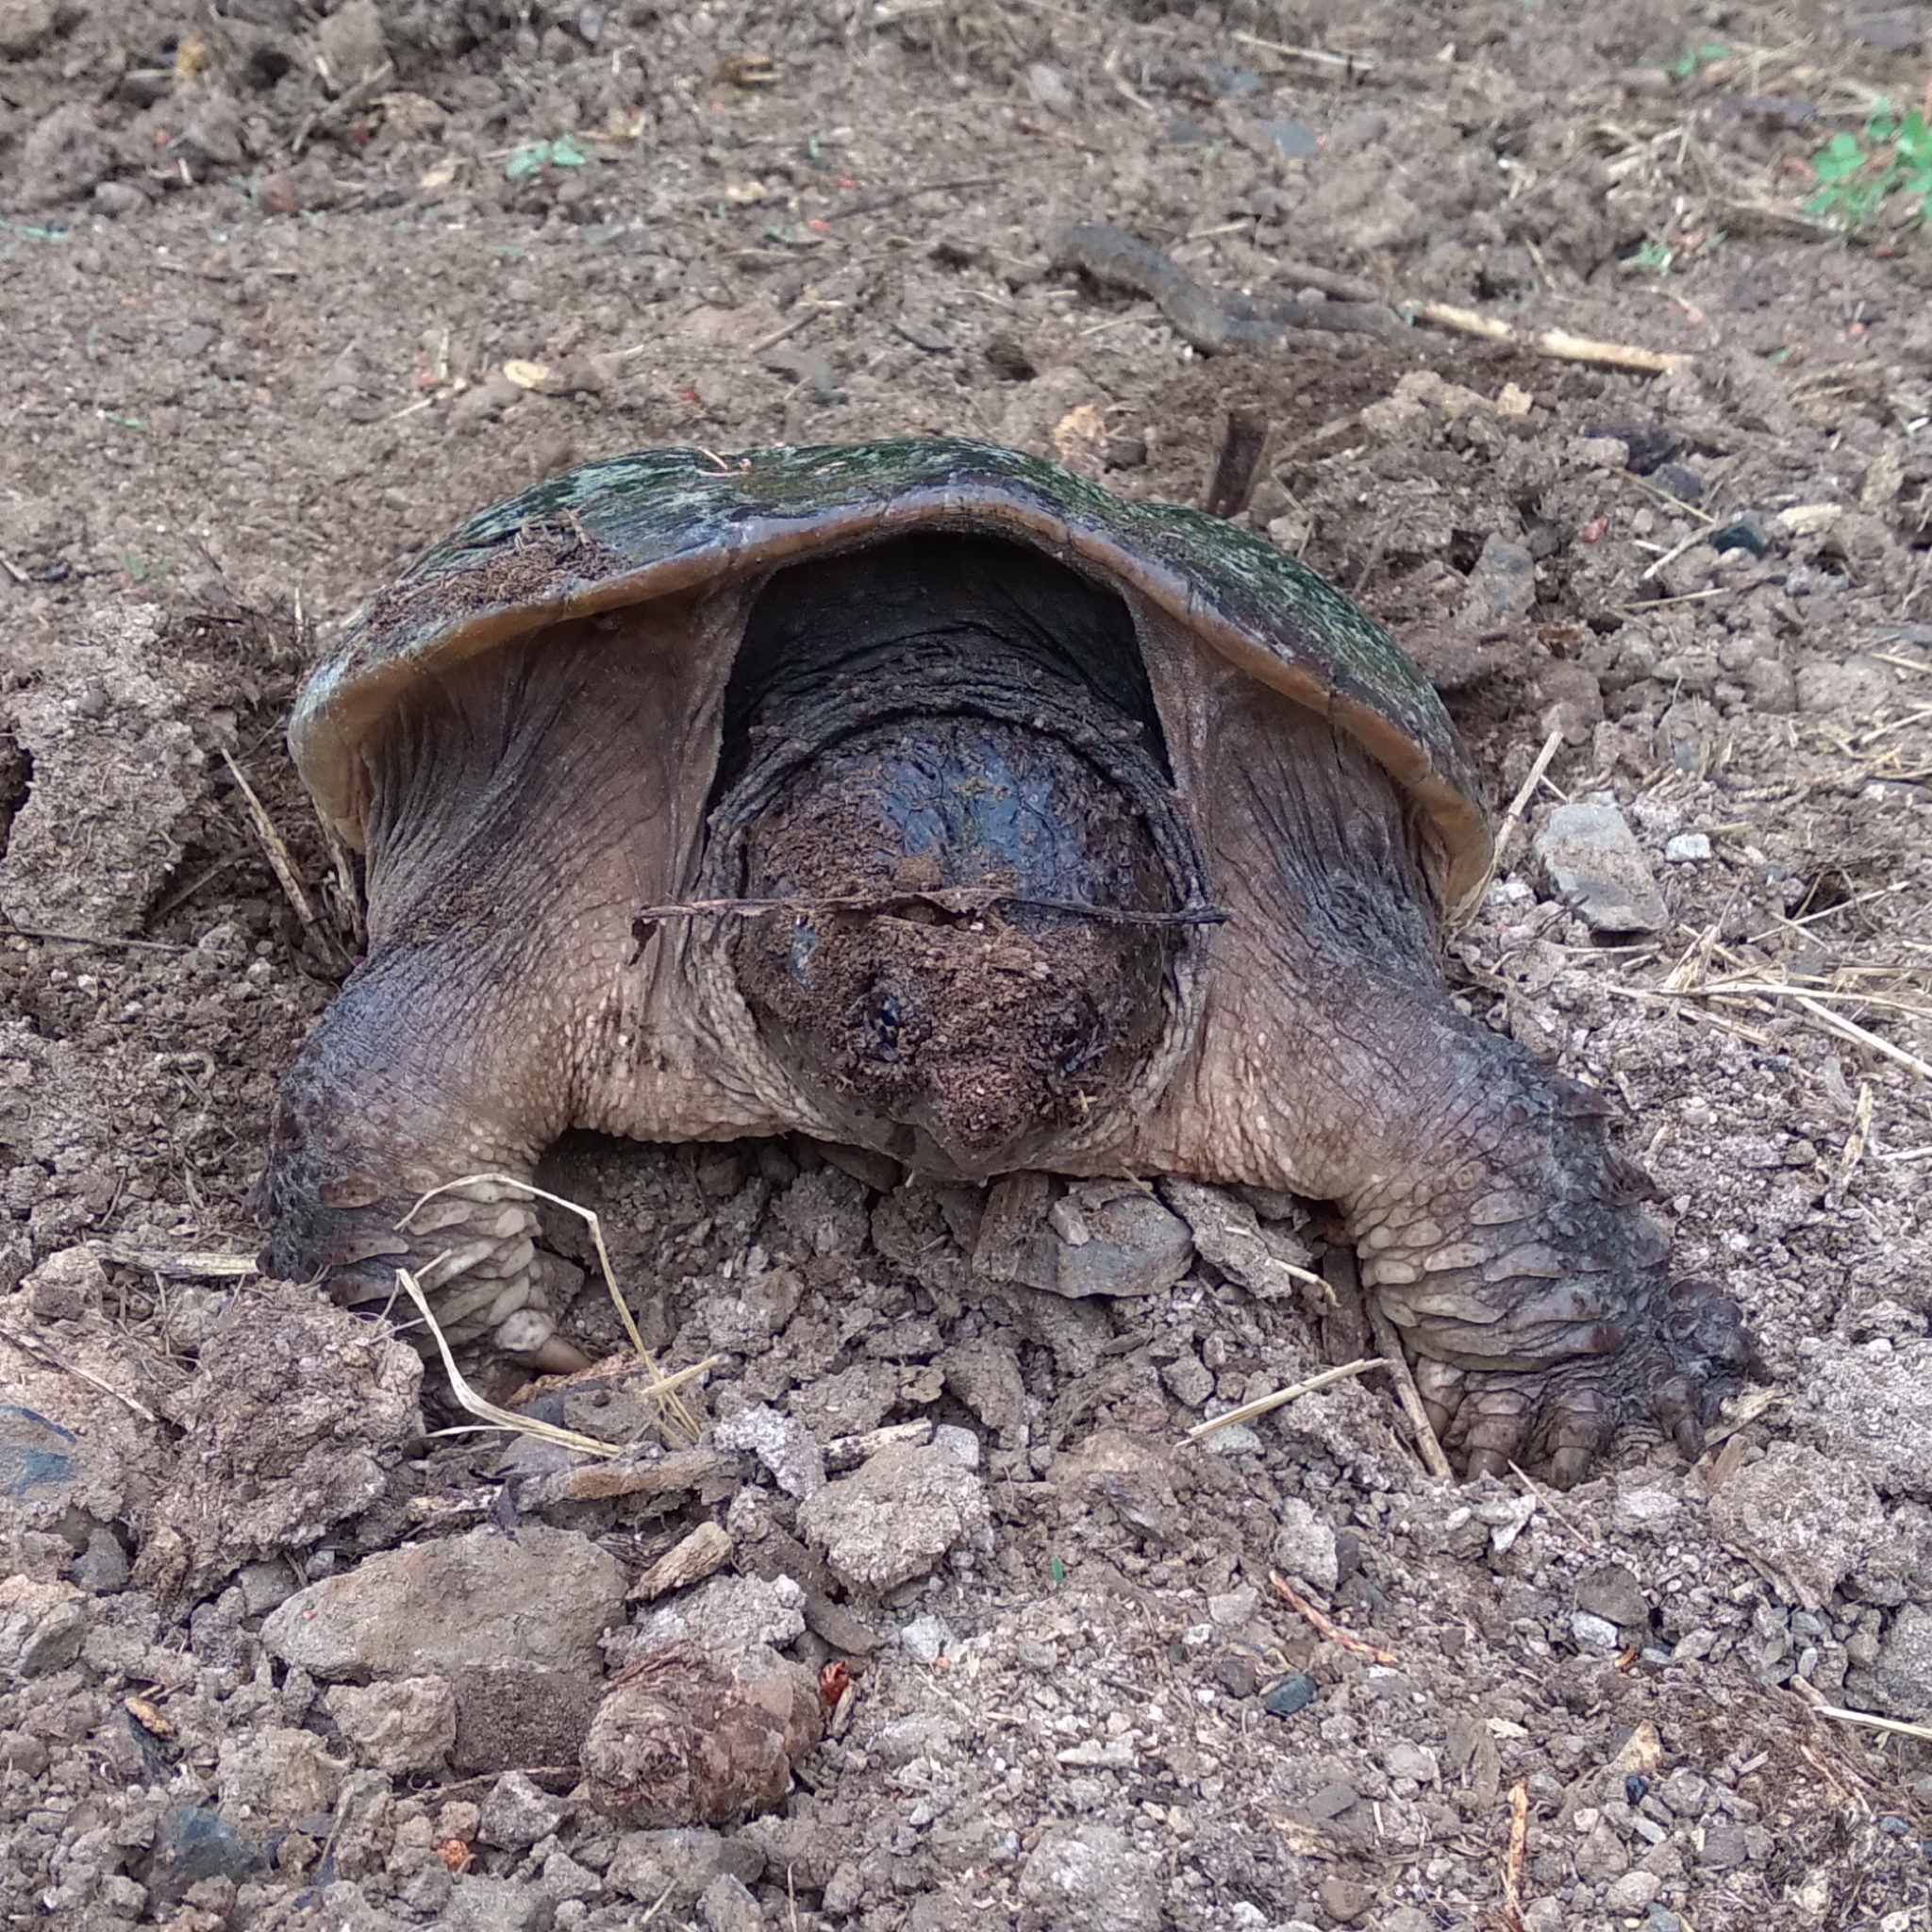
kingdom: Animalia
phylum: Chordata
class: Testudines
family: Chelydridae
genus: Chelydra
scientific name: Chelydra serpentina
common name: Common snapping turtle
